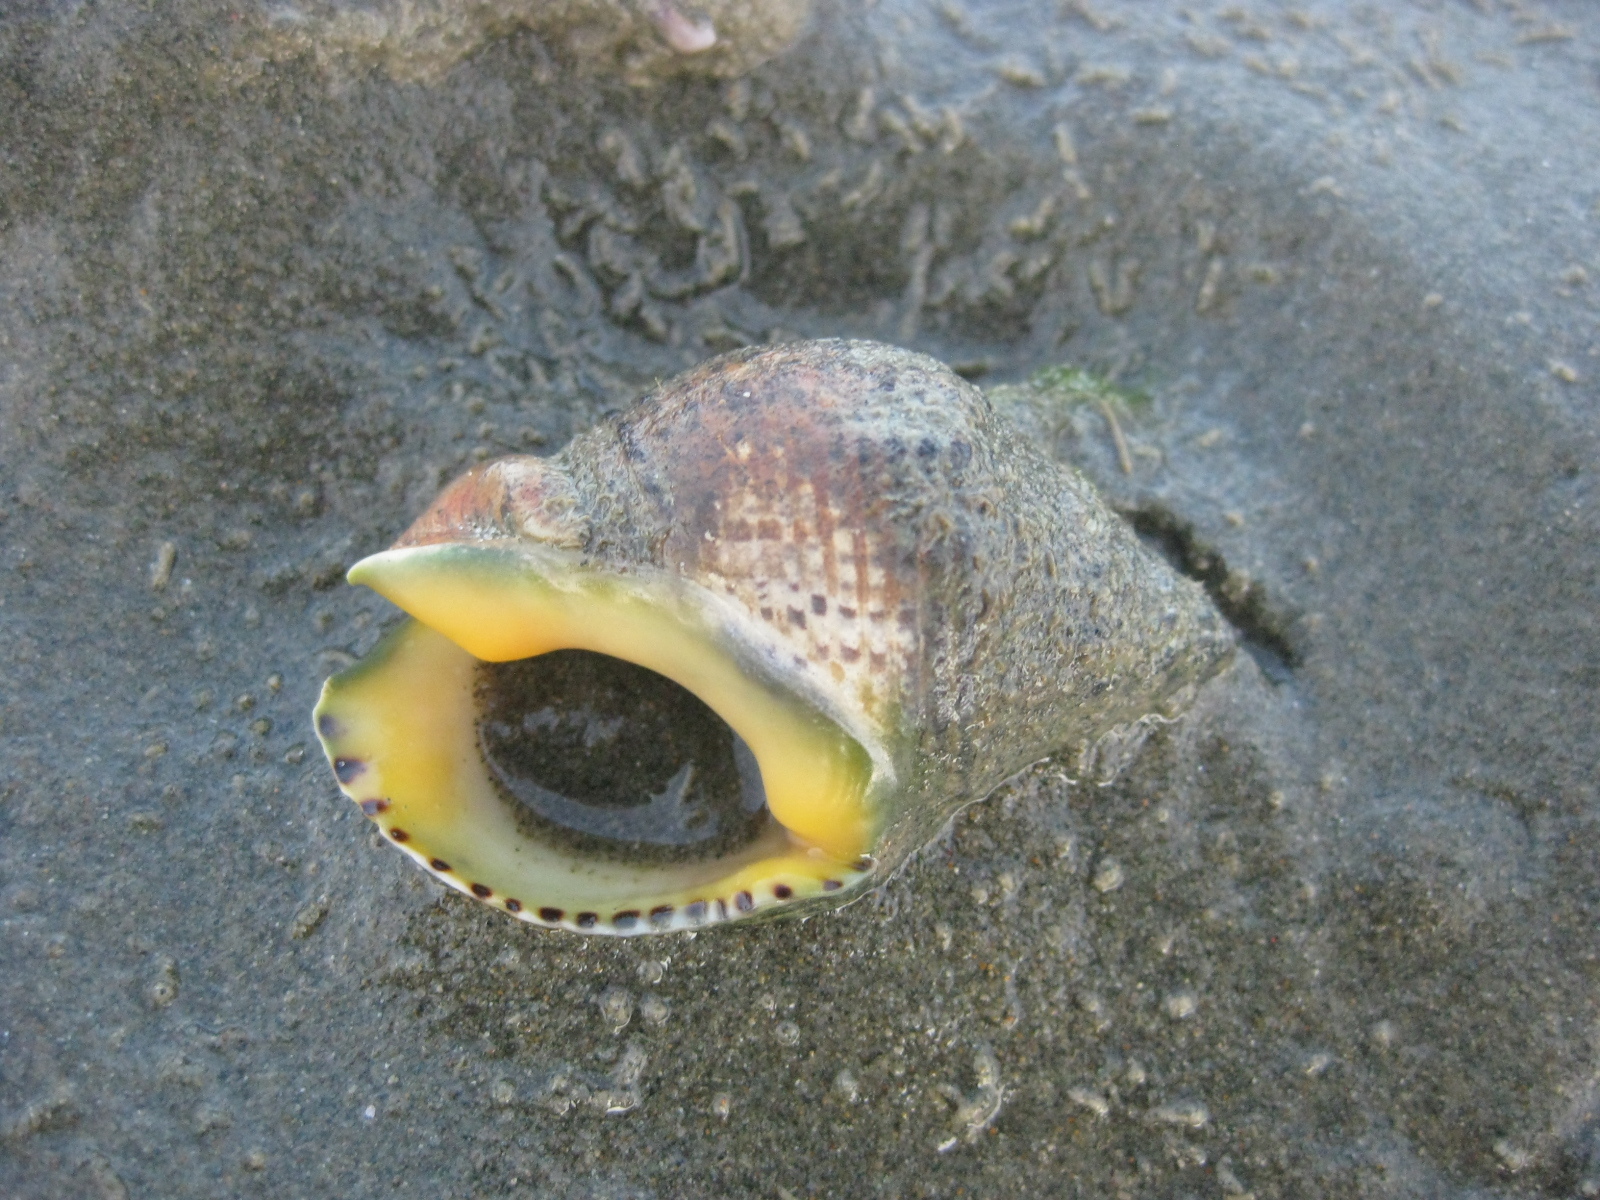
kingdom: Animalia
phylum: Mollusca
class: Gastropoda
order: Neogastropoda
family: Cominellidae
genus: Cominella
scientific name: Cominella adspersa
